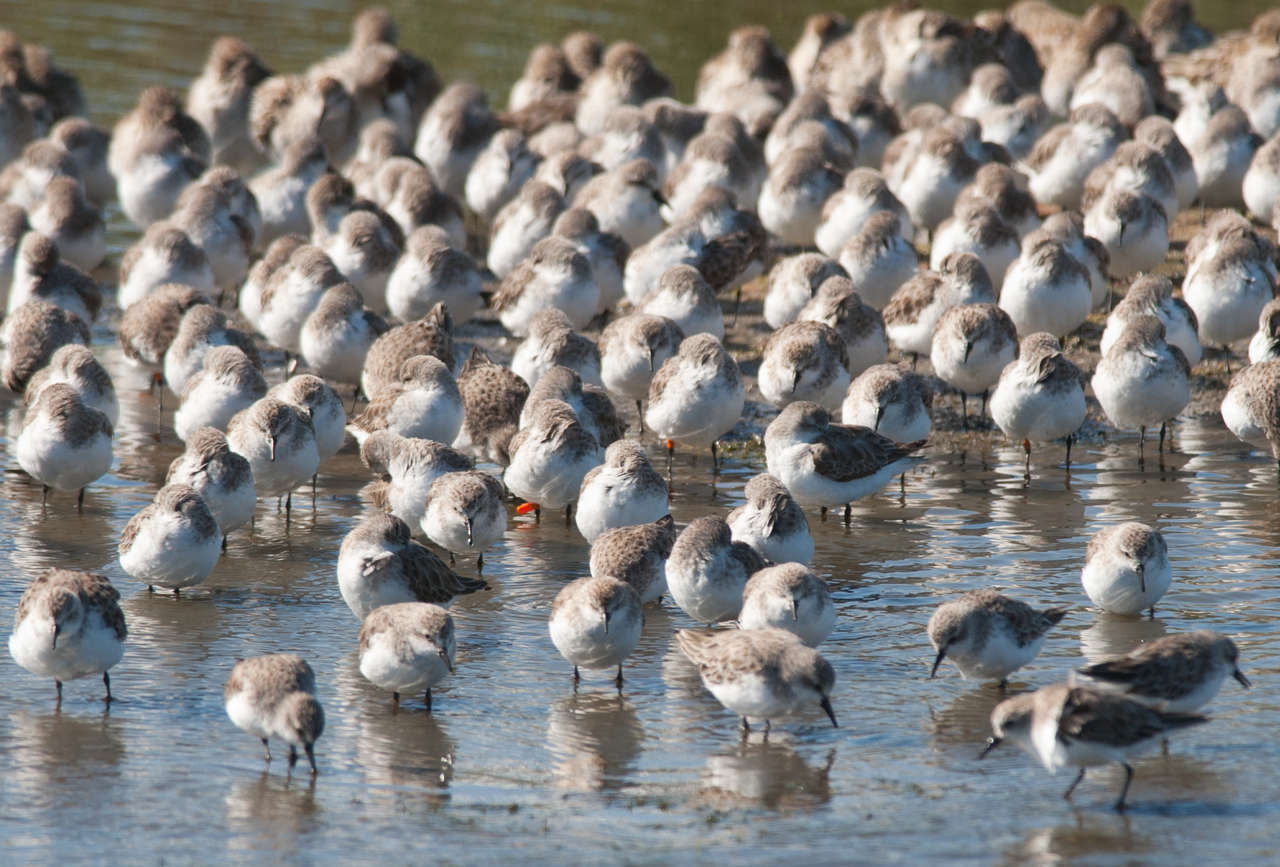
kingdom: Animalia
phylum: Chordata
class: Aves
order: Charadriiformes
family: Scolopacidae
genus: Calidris
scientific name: Calidris ruficollis
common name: Red-necked stint
